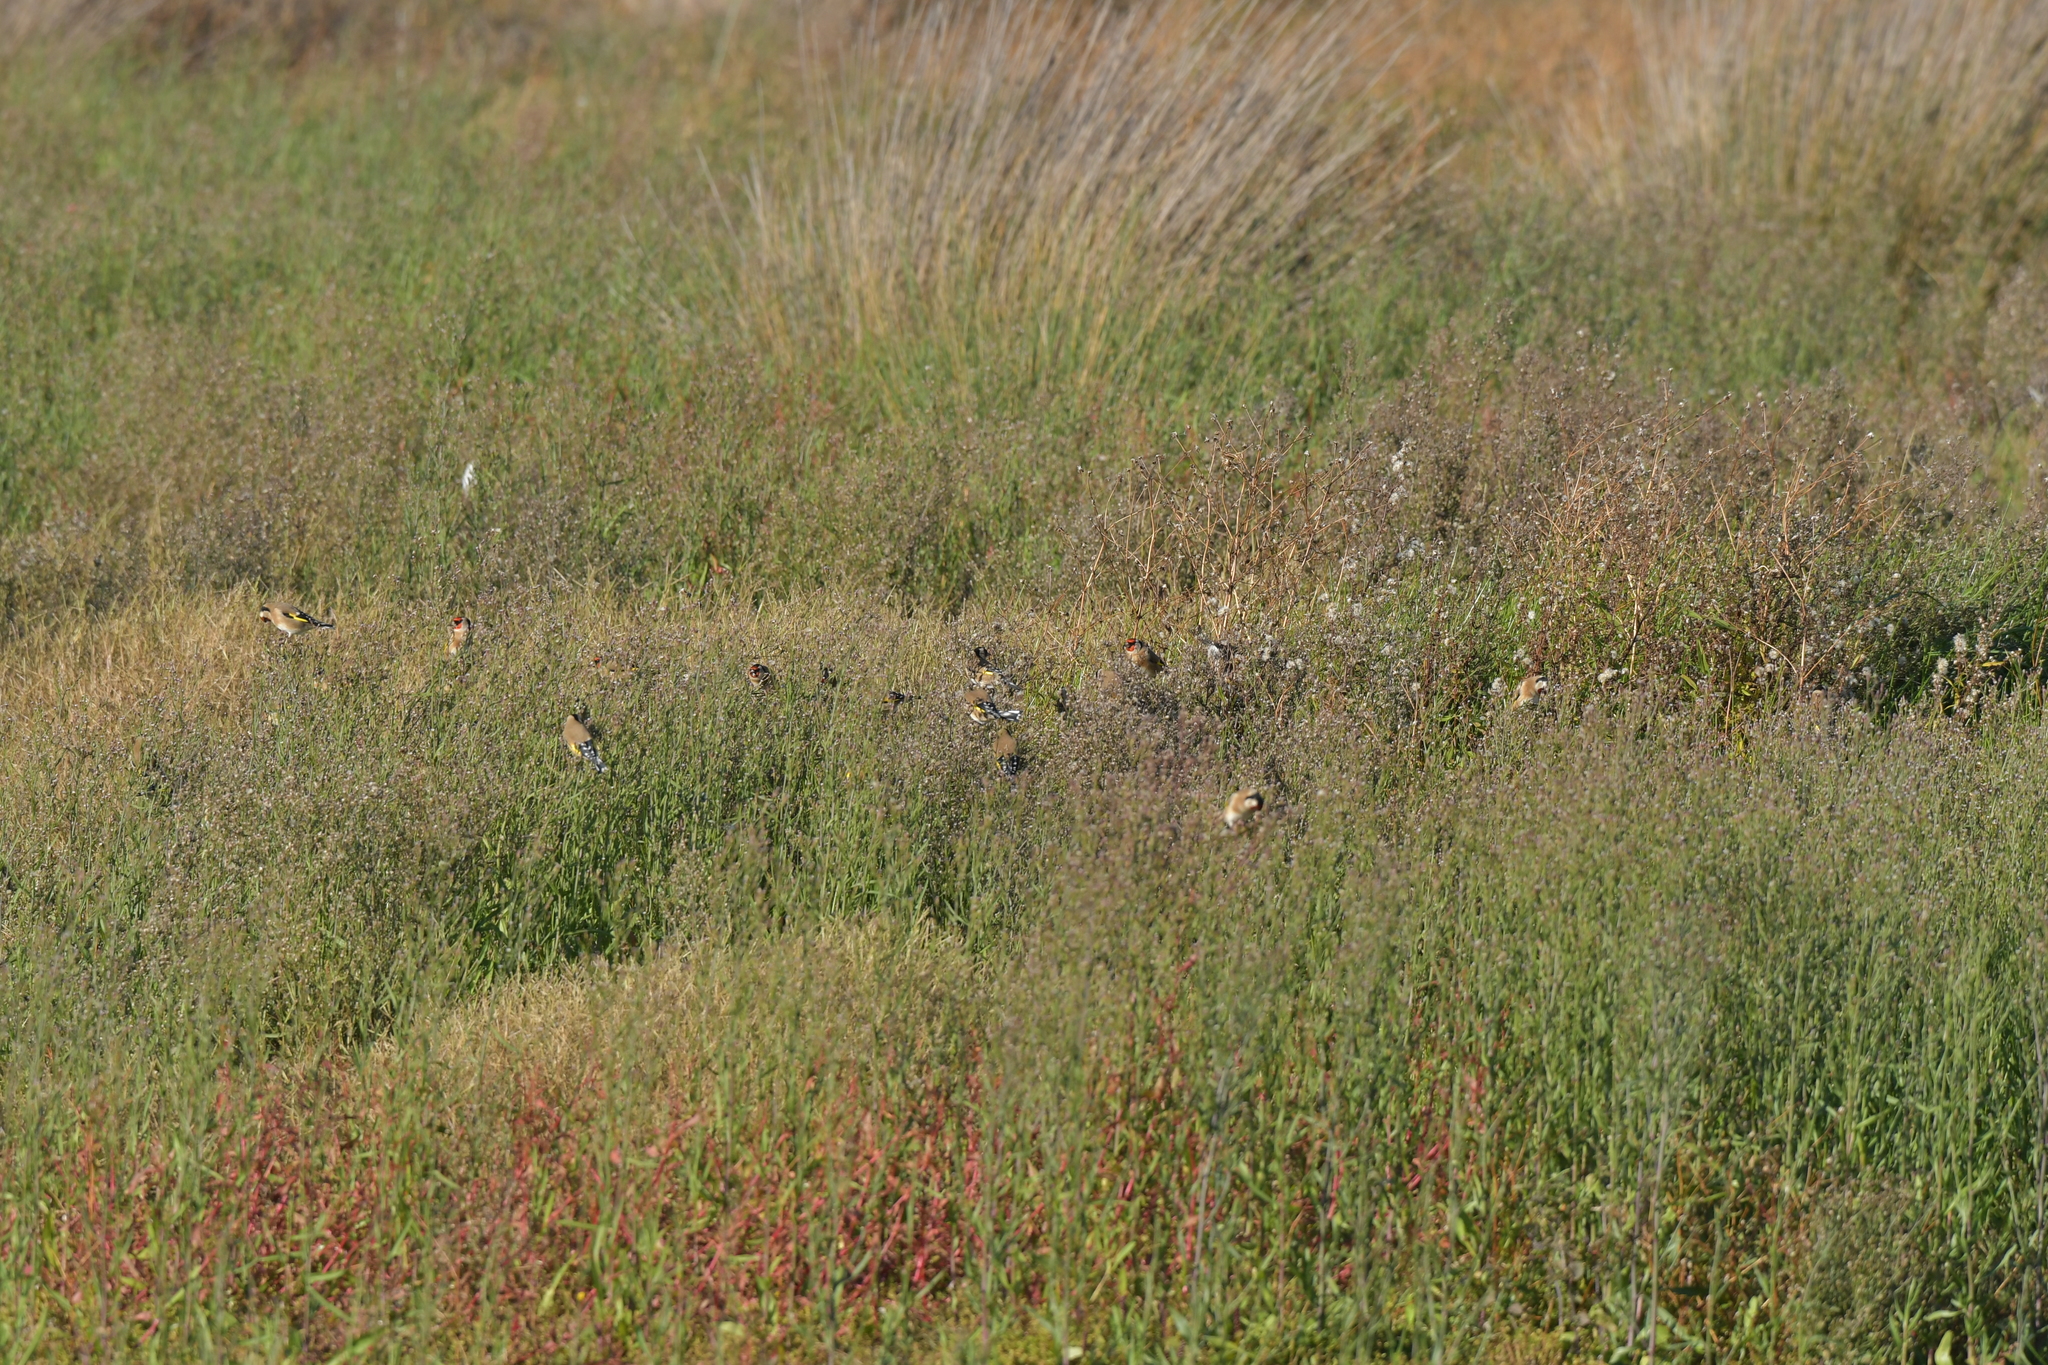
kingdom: Animalia
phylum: Chordata
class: Aves
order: Passeriformes
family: Fringillidae
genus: Carduelis
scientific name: Carduelis carduelis
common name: European goldfinch
